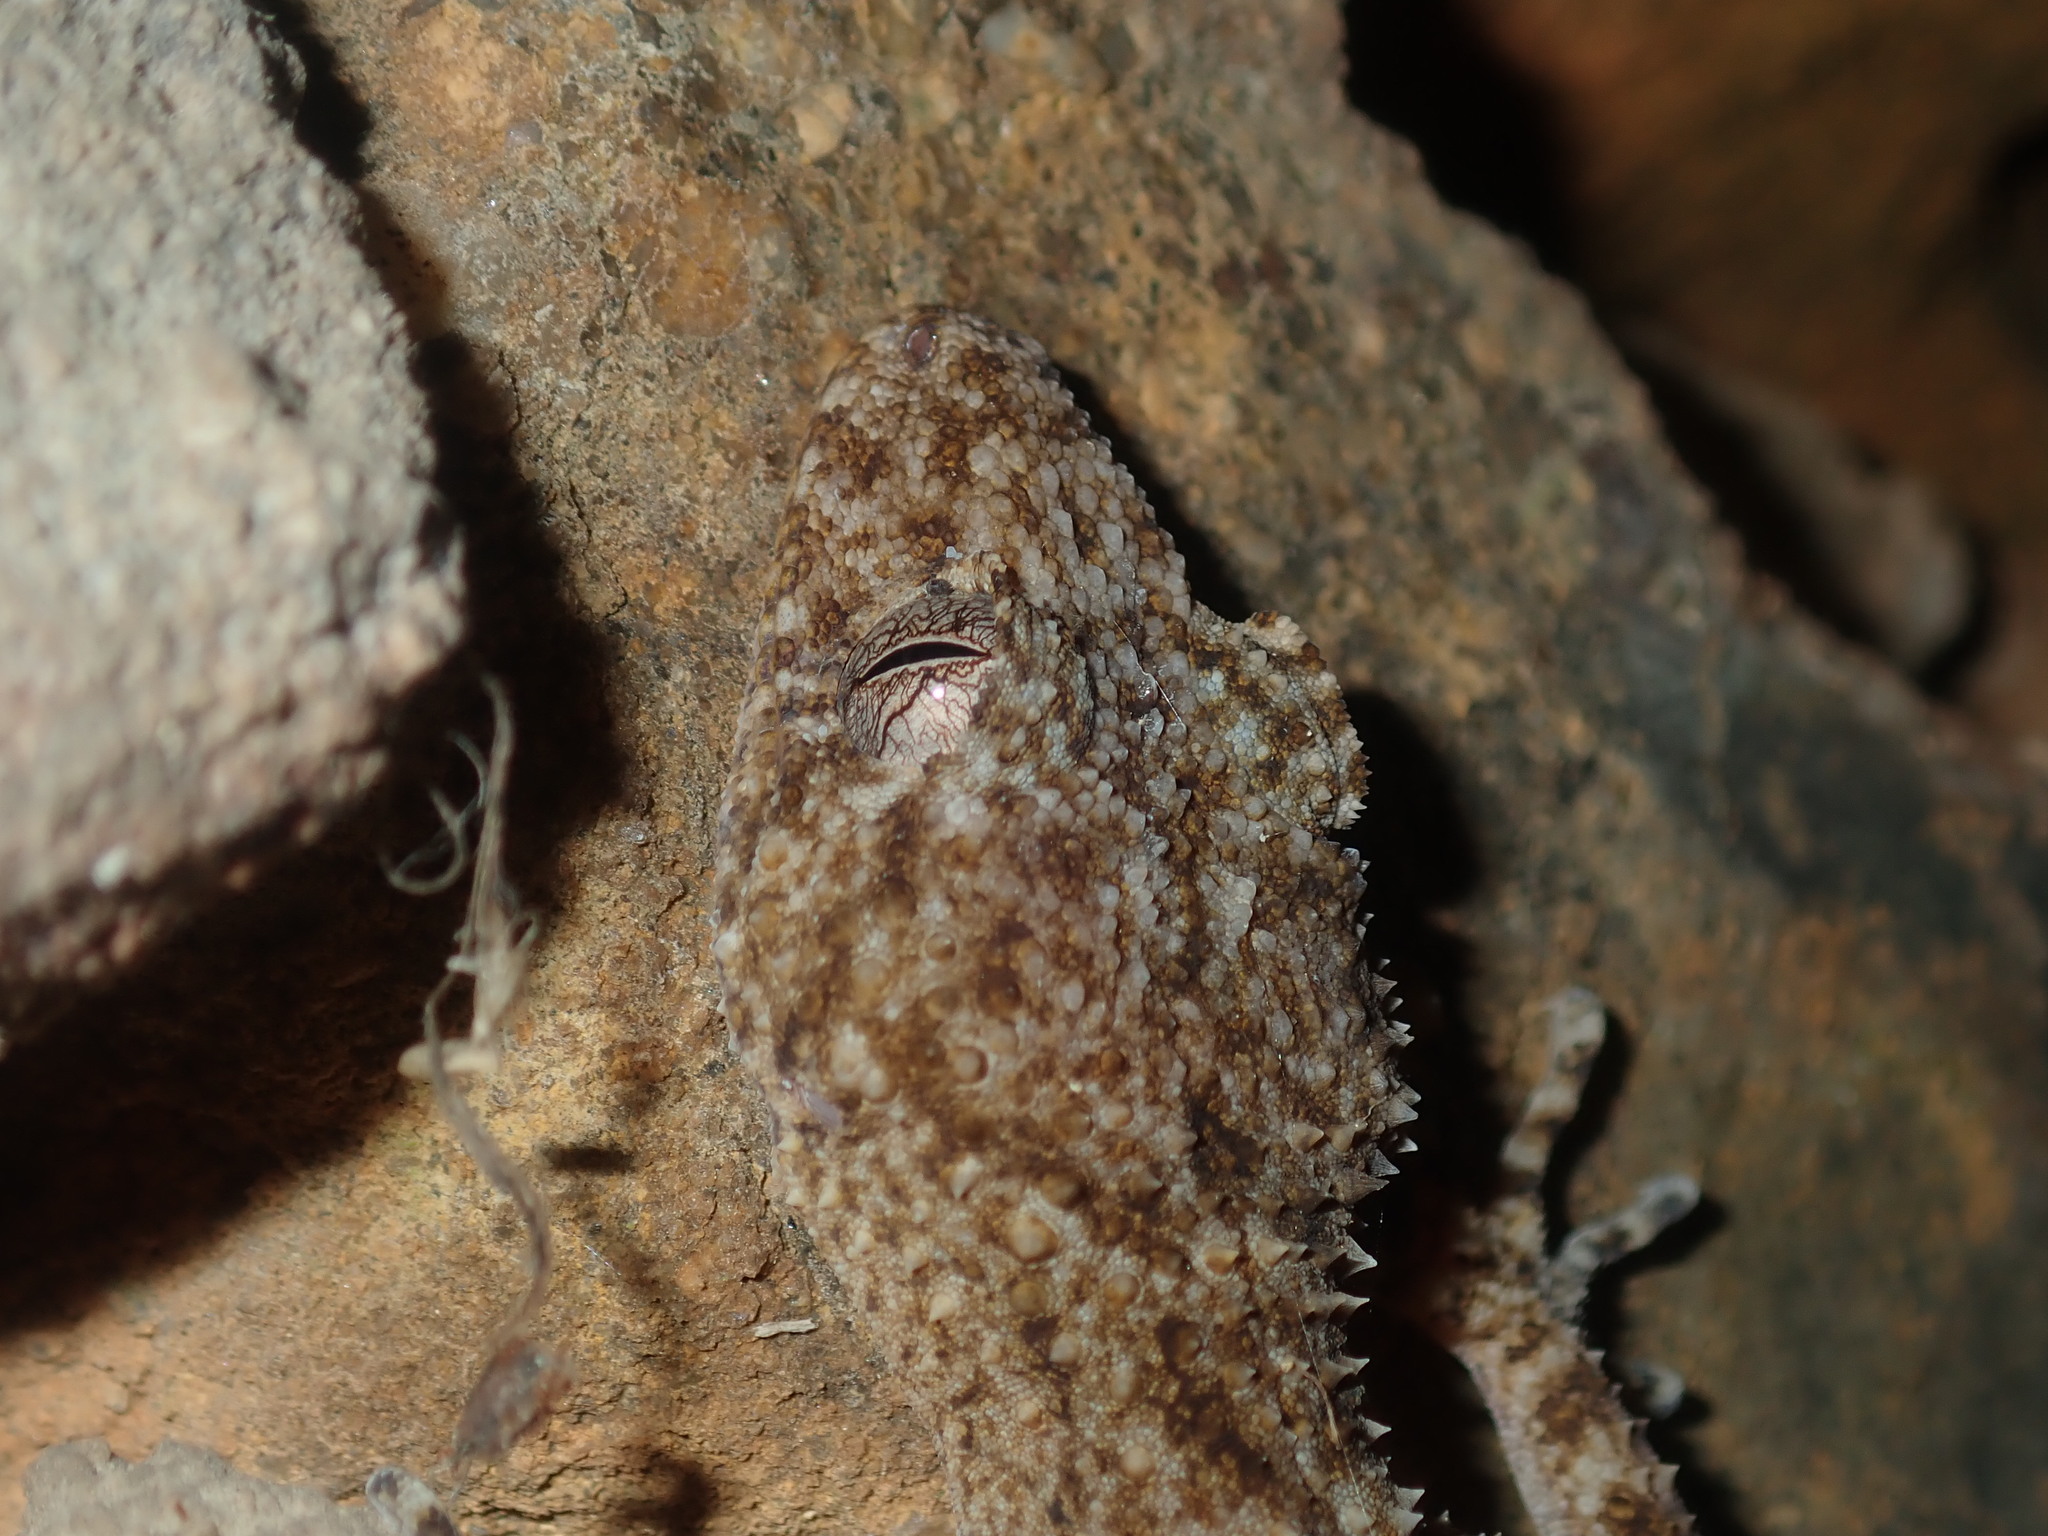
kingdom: Animalia
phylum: Chordata
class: Squamata
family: Carphodactylidae
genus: Phyllurus
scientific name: Phyllurus platurus
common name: Broad-tailed gecko
